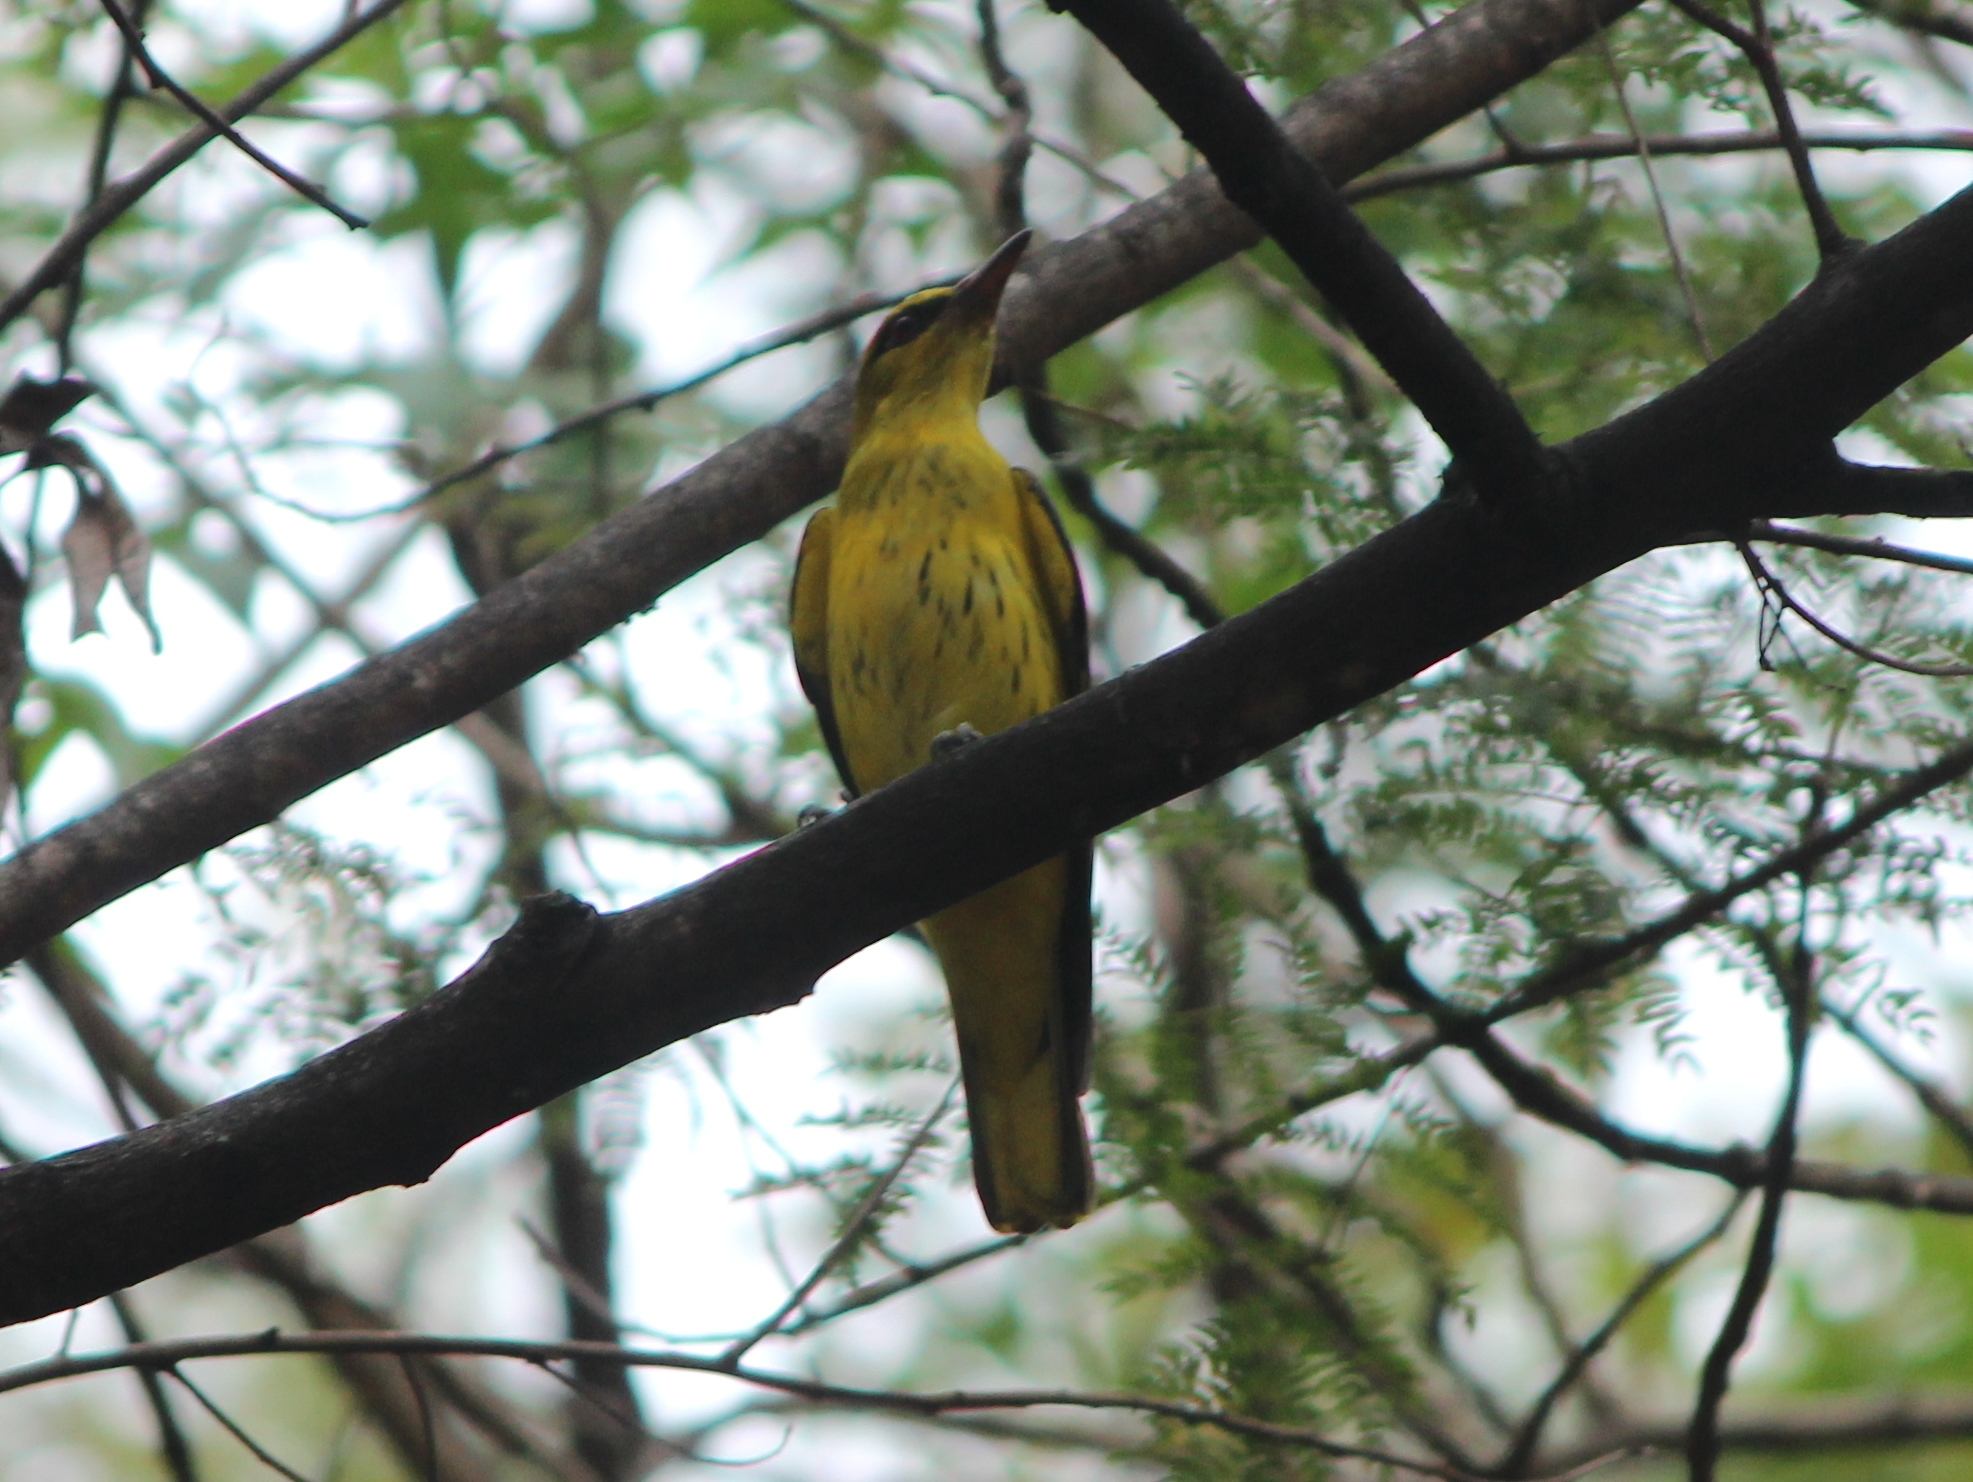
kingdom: Animalia
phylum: Chordata
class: Aves
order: Passeriformes
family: Oriolidae
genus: Oriolus
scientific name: Oriolus kundoo
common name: Indian golden oriole
